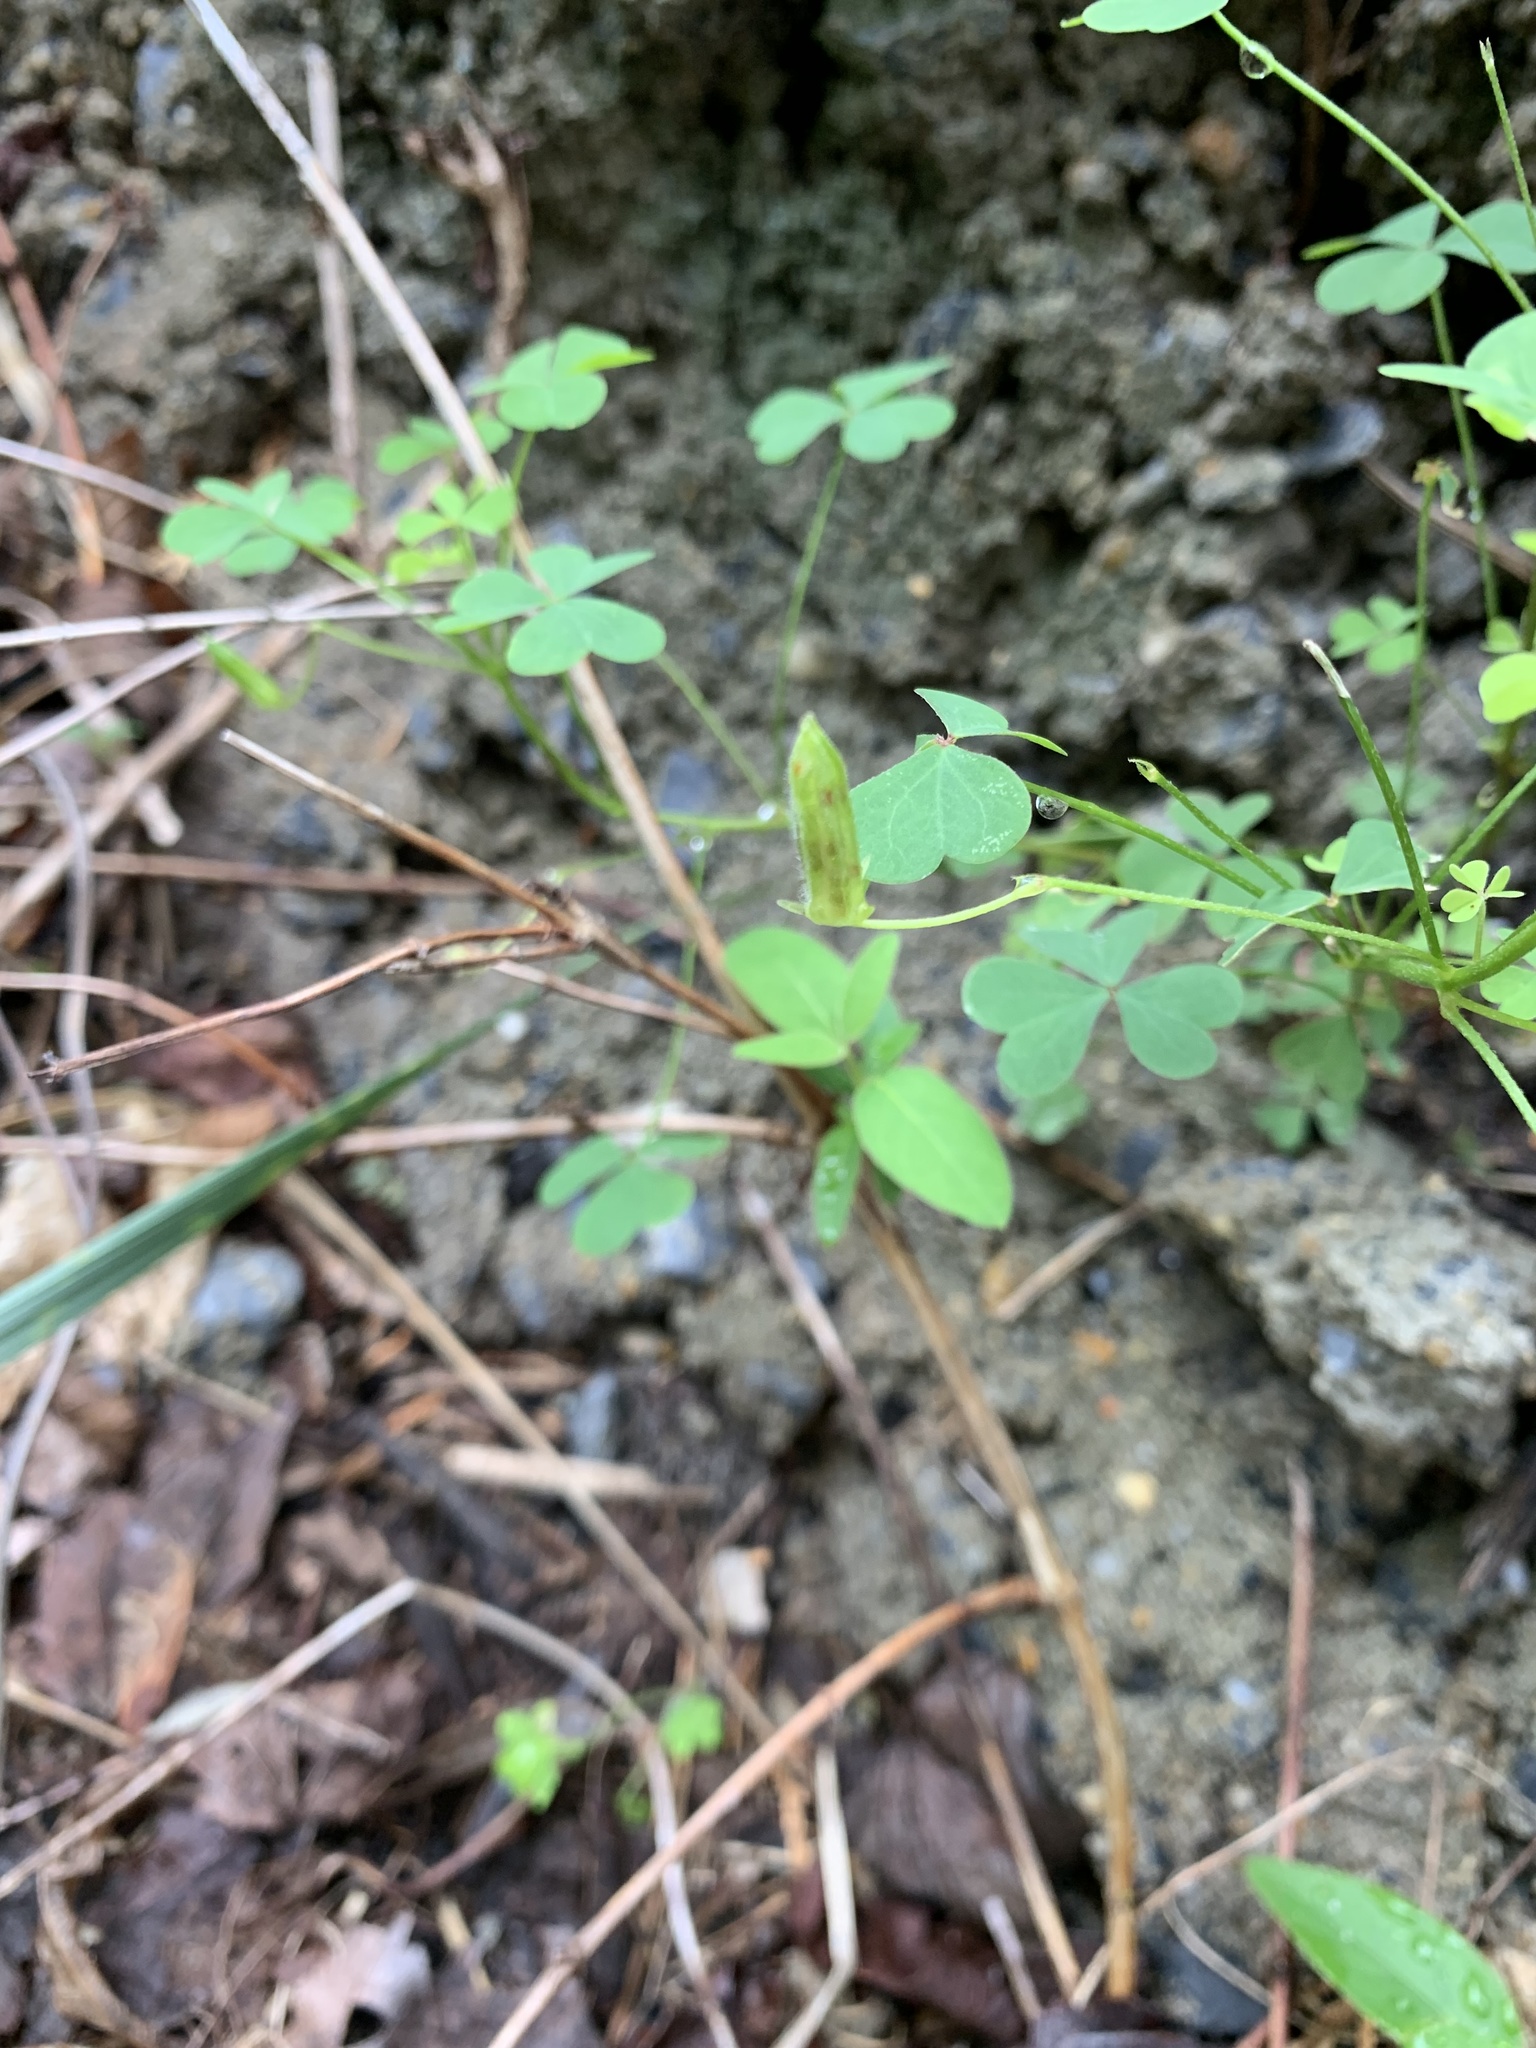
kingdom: Plantae
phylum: Tracheophyta
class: Magnoliopsida
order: Oxalidales
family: Oxalidaceae
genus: Oxalis
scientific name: Oxalis dillenii
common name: Sussex yellow-sorrel
